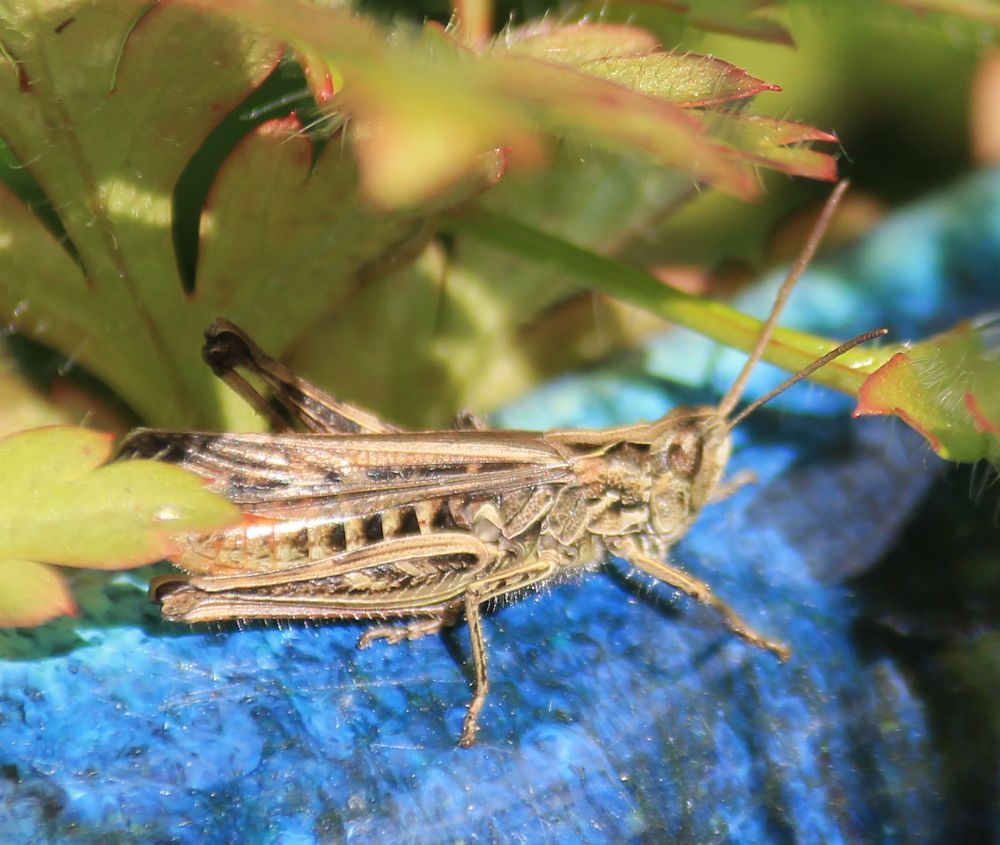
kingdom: Animalia
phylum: Arthropoda
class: Insecta
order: Orthoptera
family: Acrididae
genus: Chorthippus
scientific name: Chorthippus brunneus
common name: Field grasshopper
